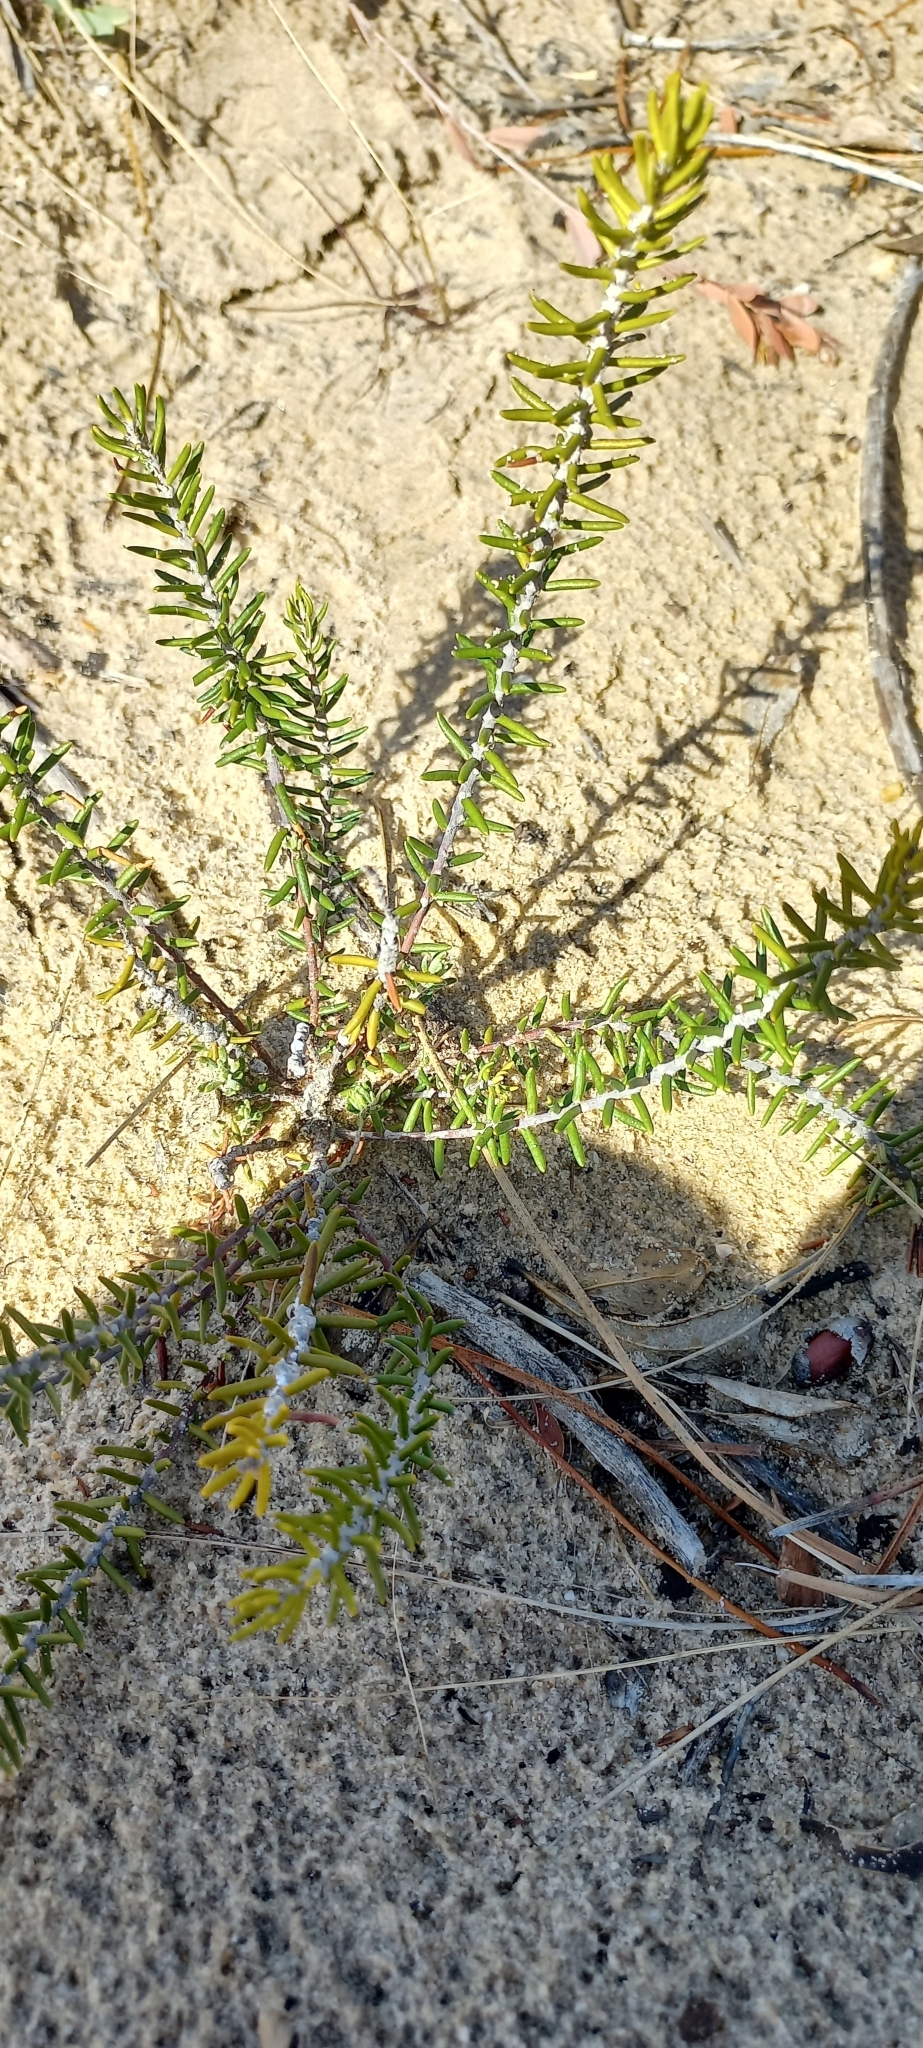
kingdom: Plantae
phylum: Tracheophyta
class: Magnoliopsida
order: Rosales
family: Rhamnaceae
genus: Trichocephalus
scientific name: Trichocephalus stipularis
